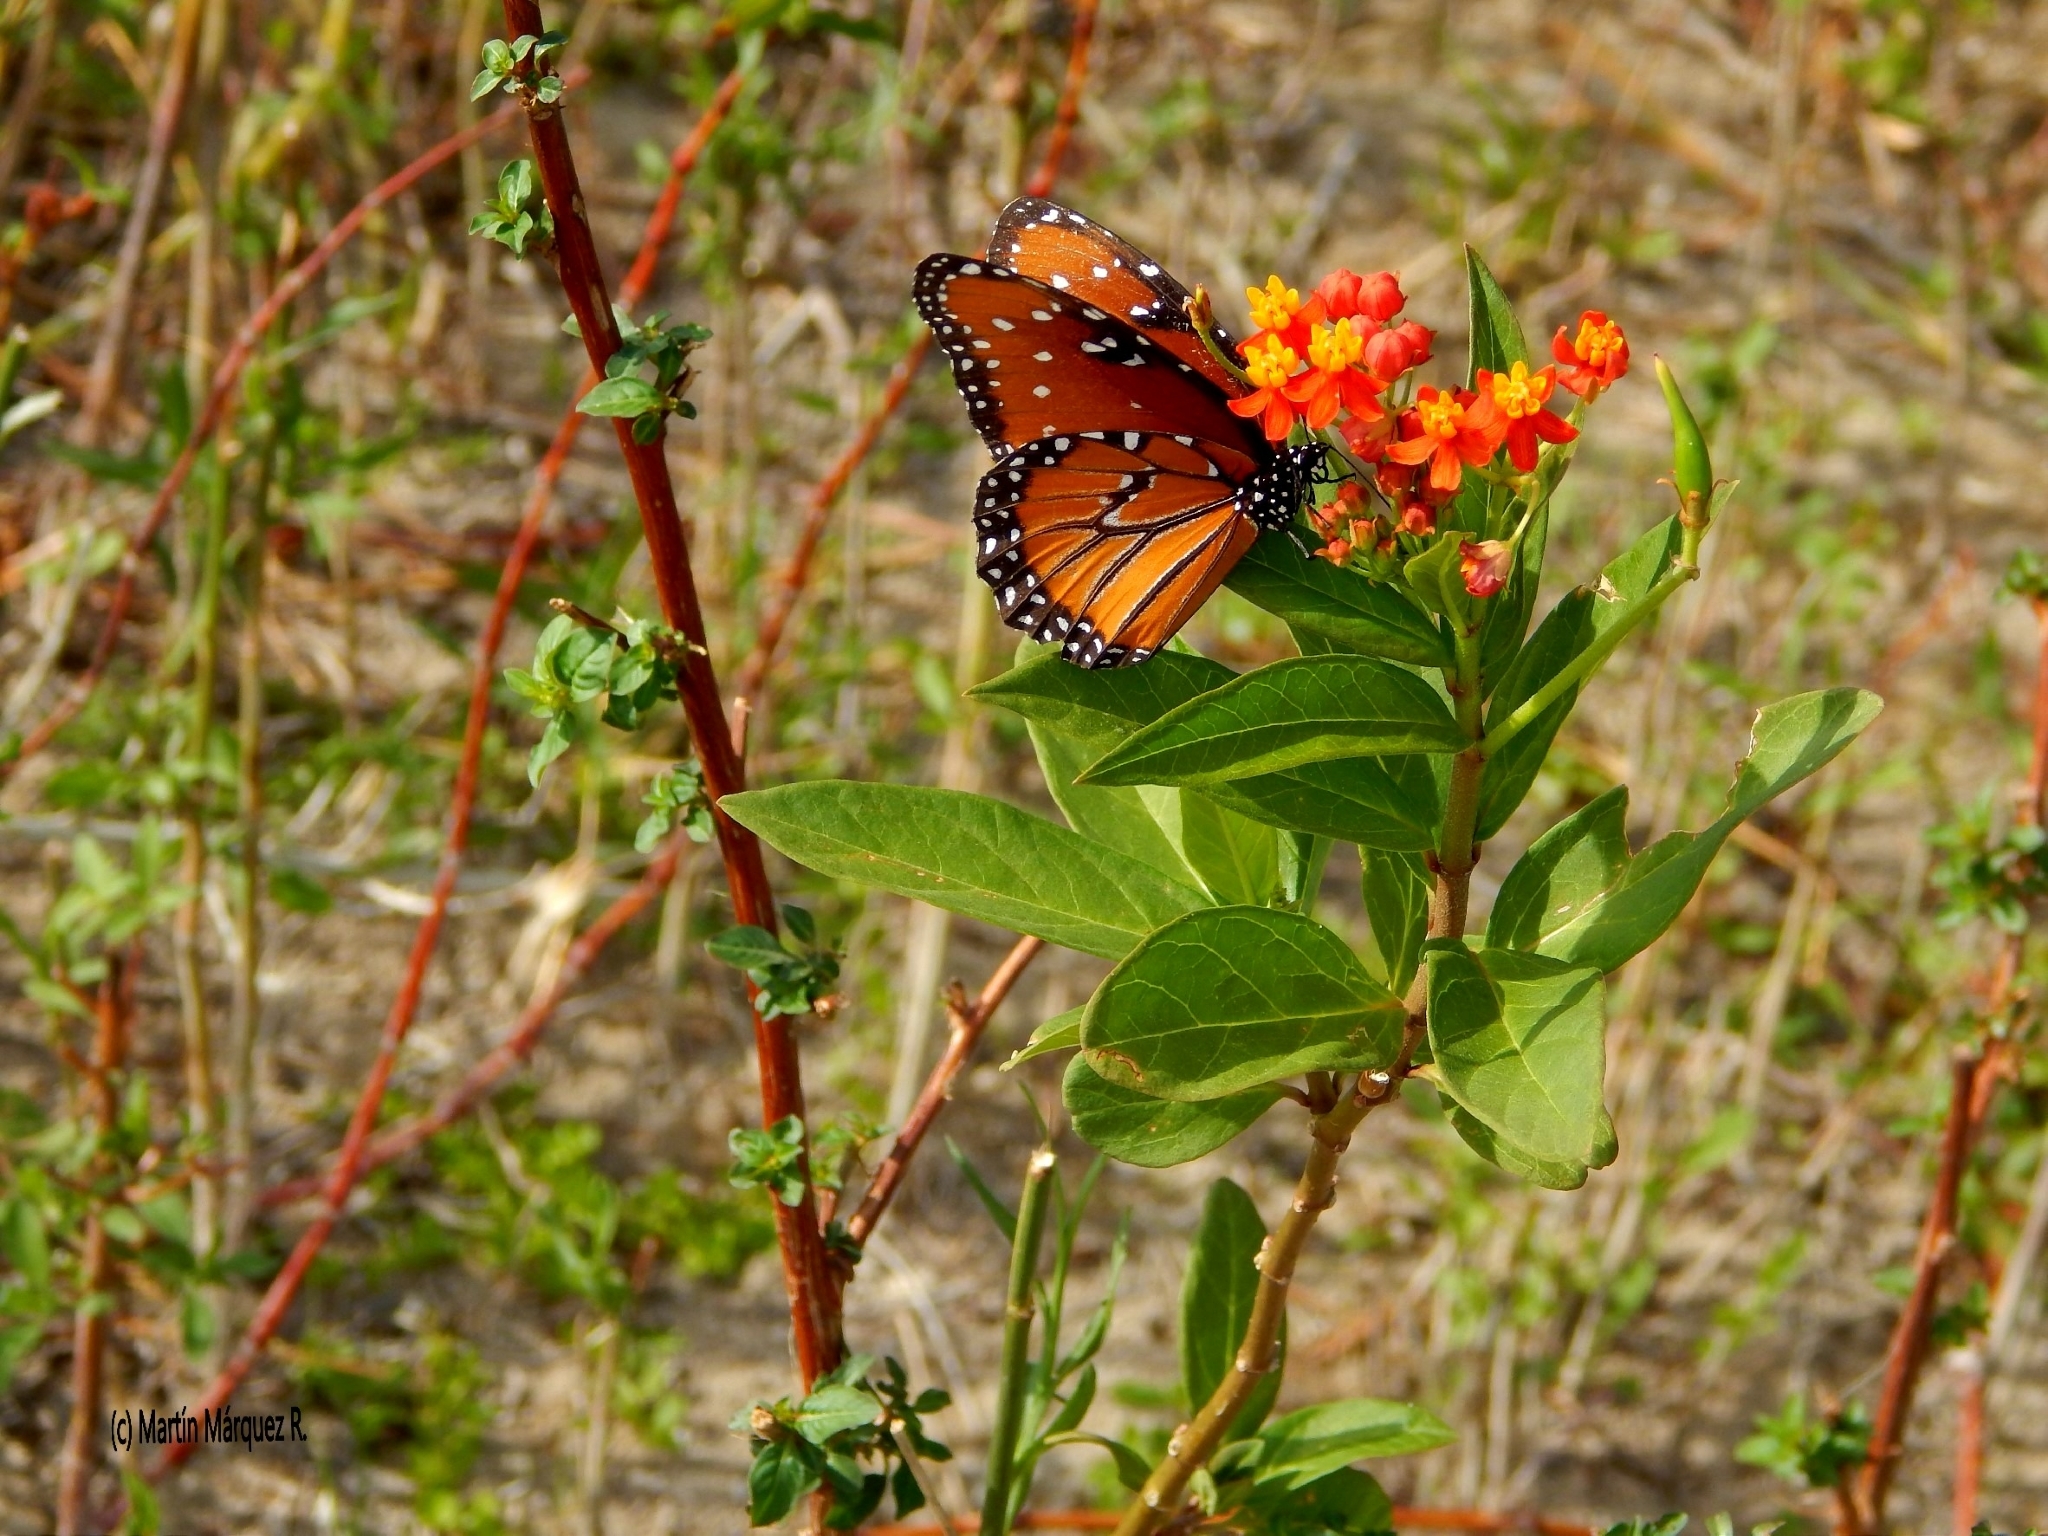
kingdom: Animalia
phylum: Arthropoda
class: Insecta
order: Lepidoptera
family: Nymphalidae
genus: Danaus
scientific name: Danaus gilippus
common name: Queen
